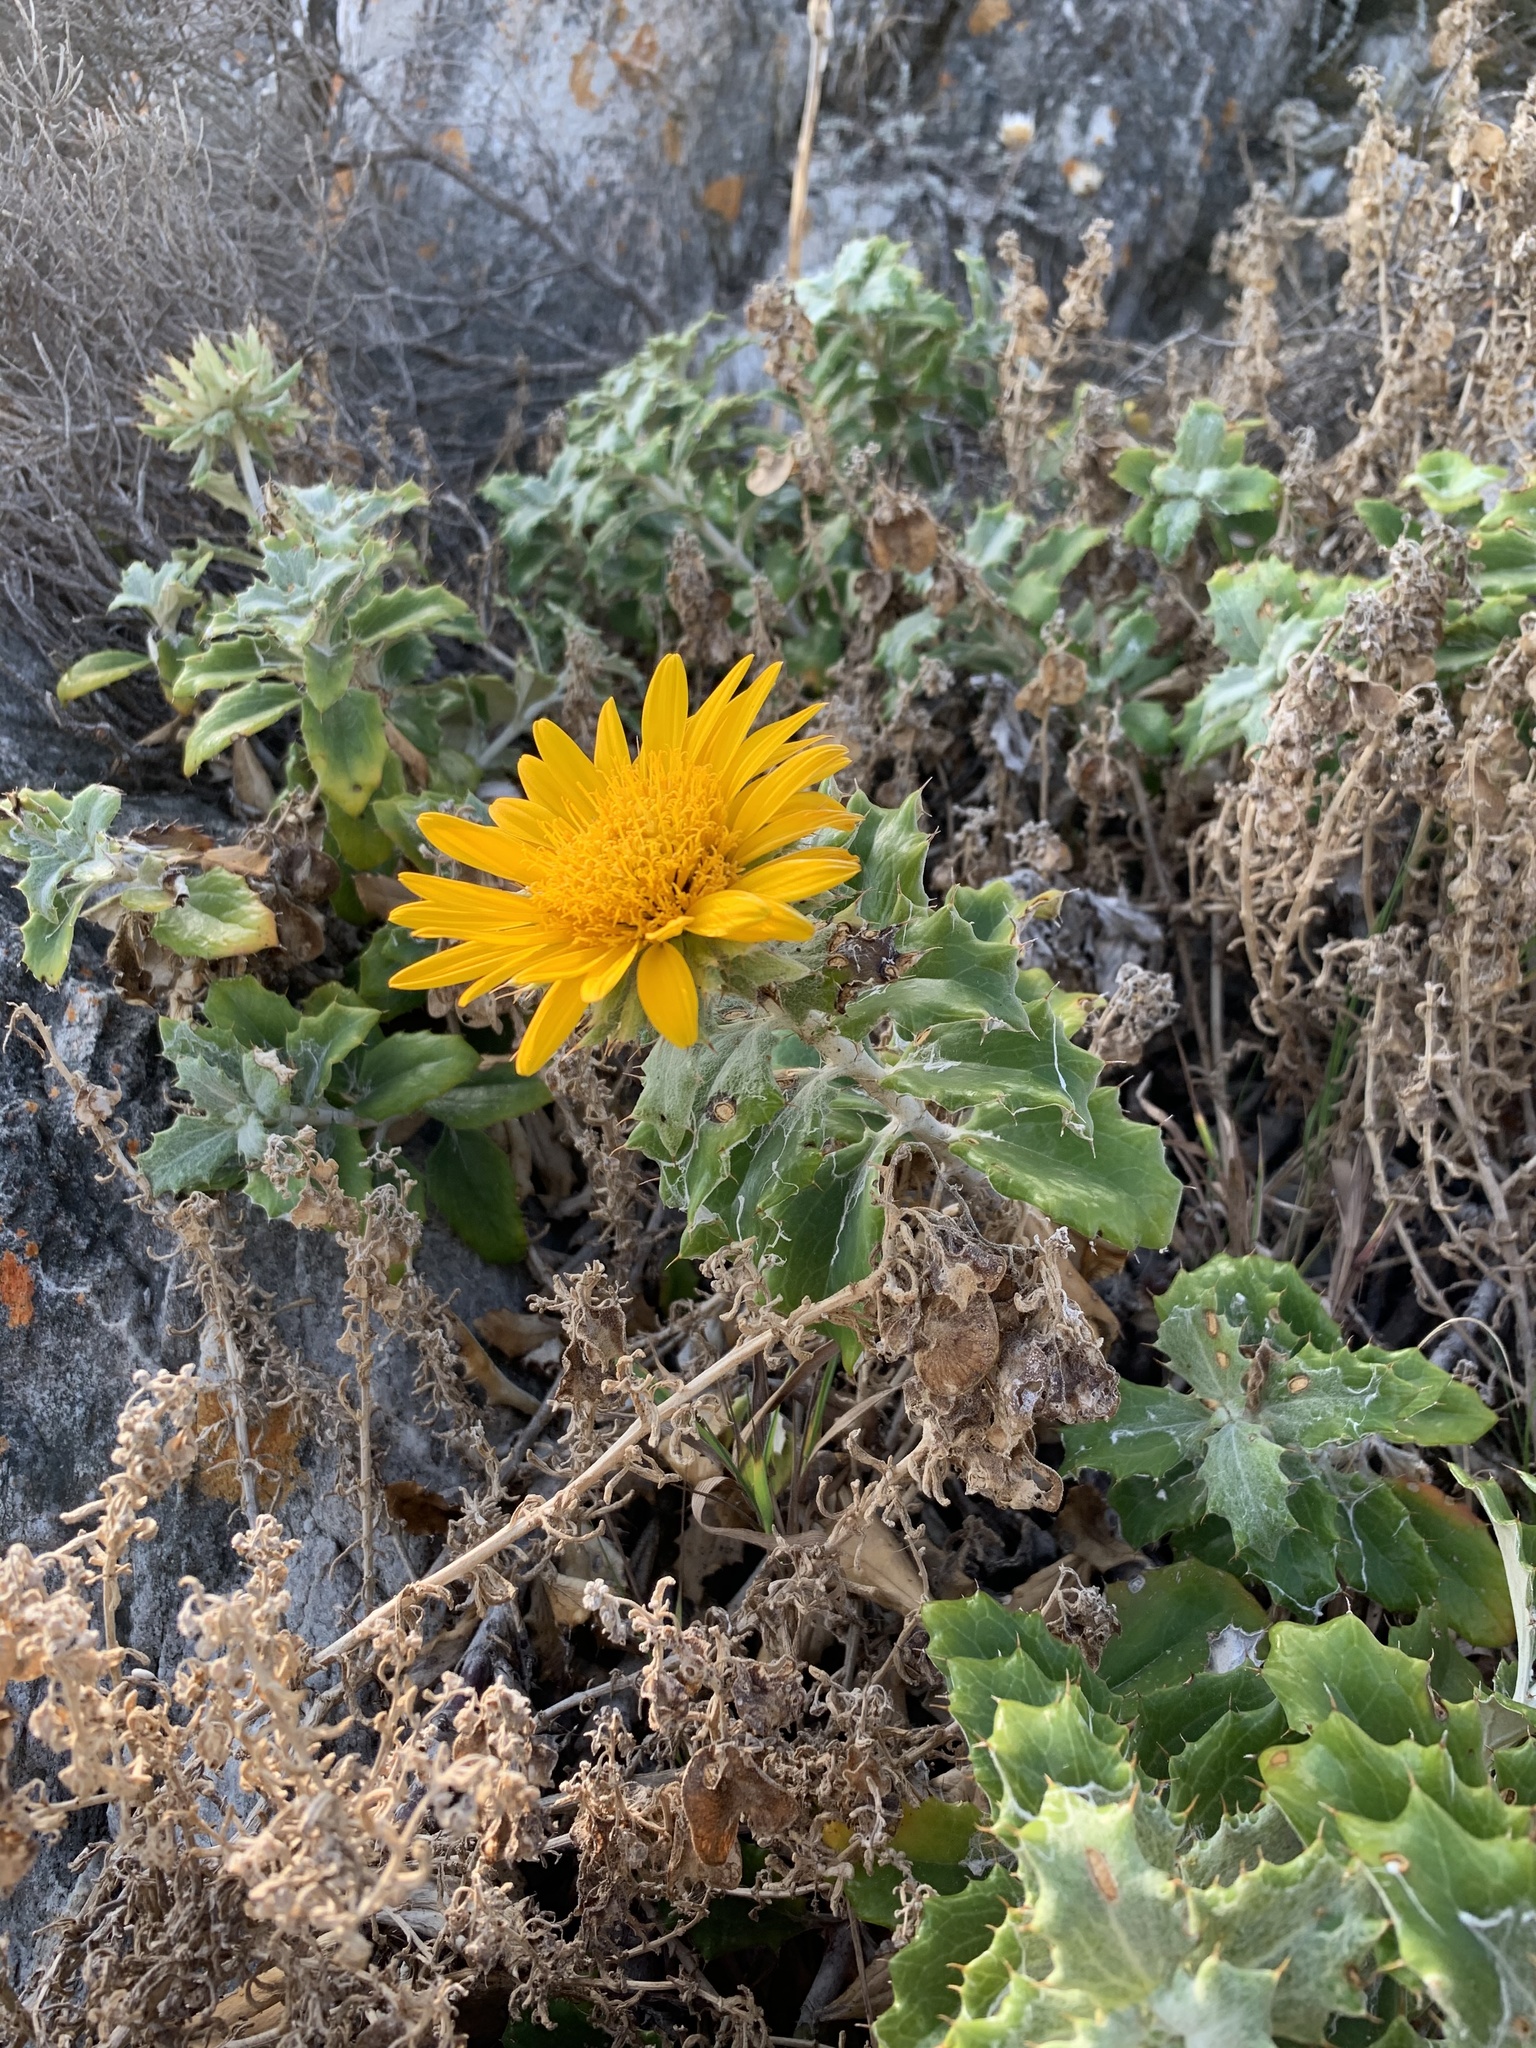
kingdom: Plantae
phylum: Tracheophyta
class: Magnoliopsida
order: Asterales
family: Asteraceae
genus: Berkheya
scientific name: Berkheya barbata
